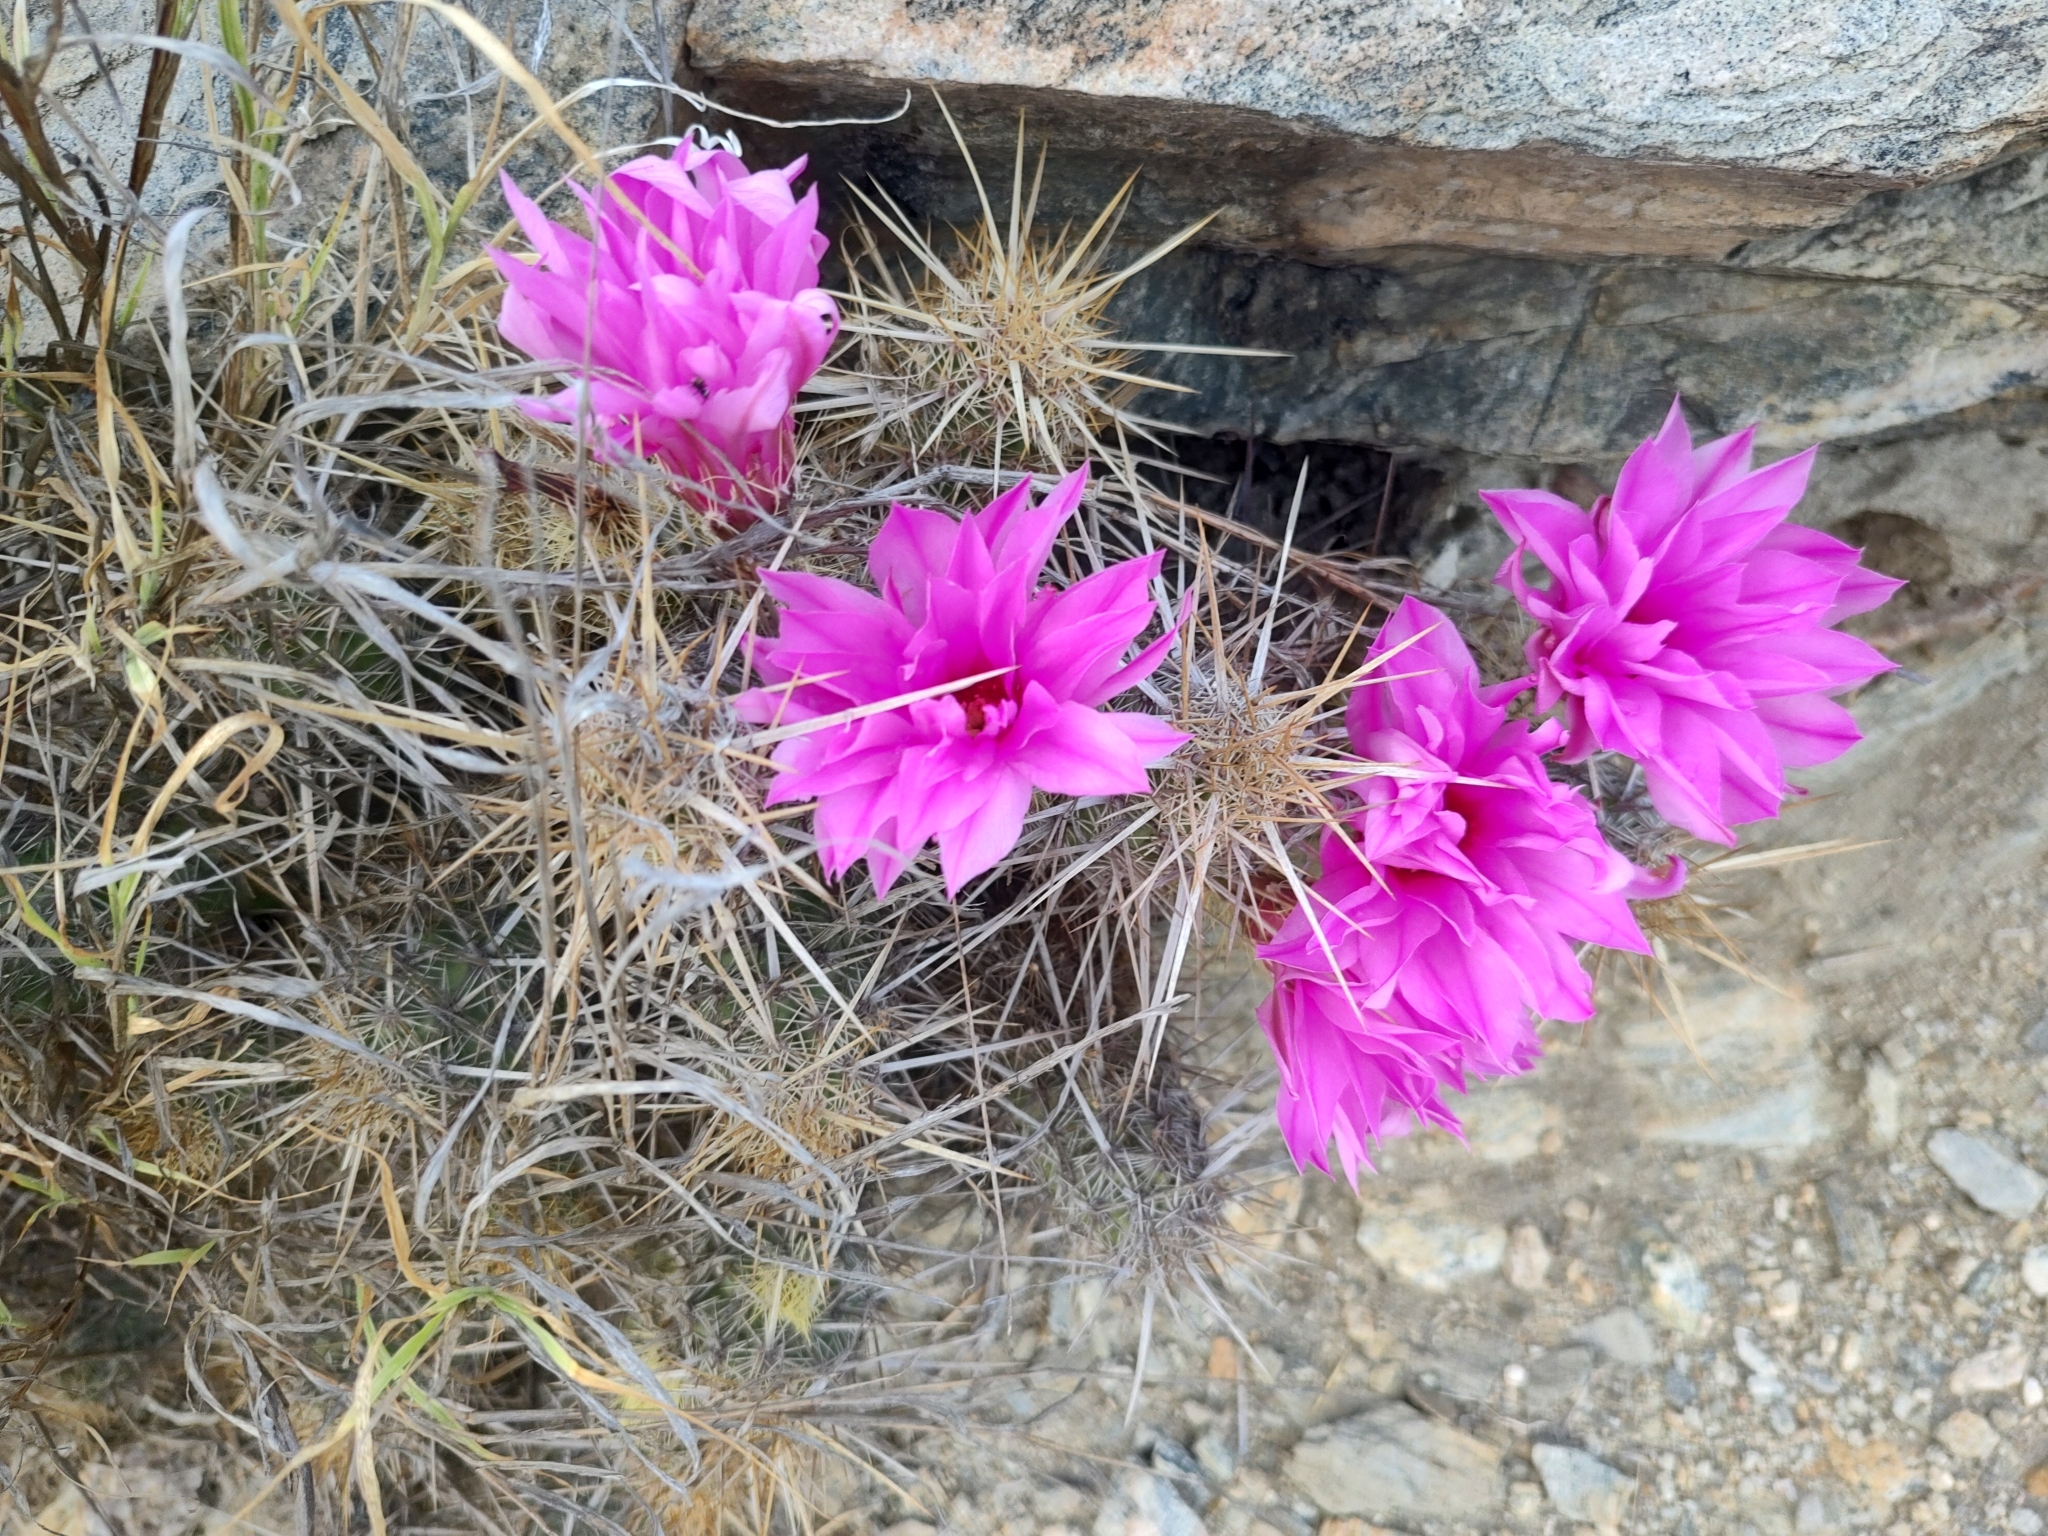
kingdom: Plantae
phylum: Tracheophyta
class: Magnoliopsida
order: Caryophyllales
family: Cactaceae
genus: Echinocereus
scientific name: Echinocereus brandegeei
